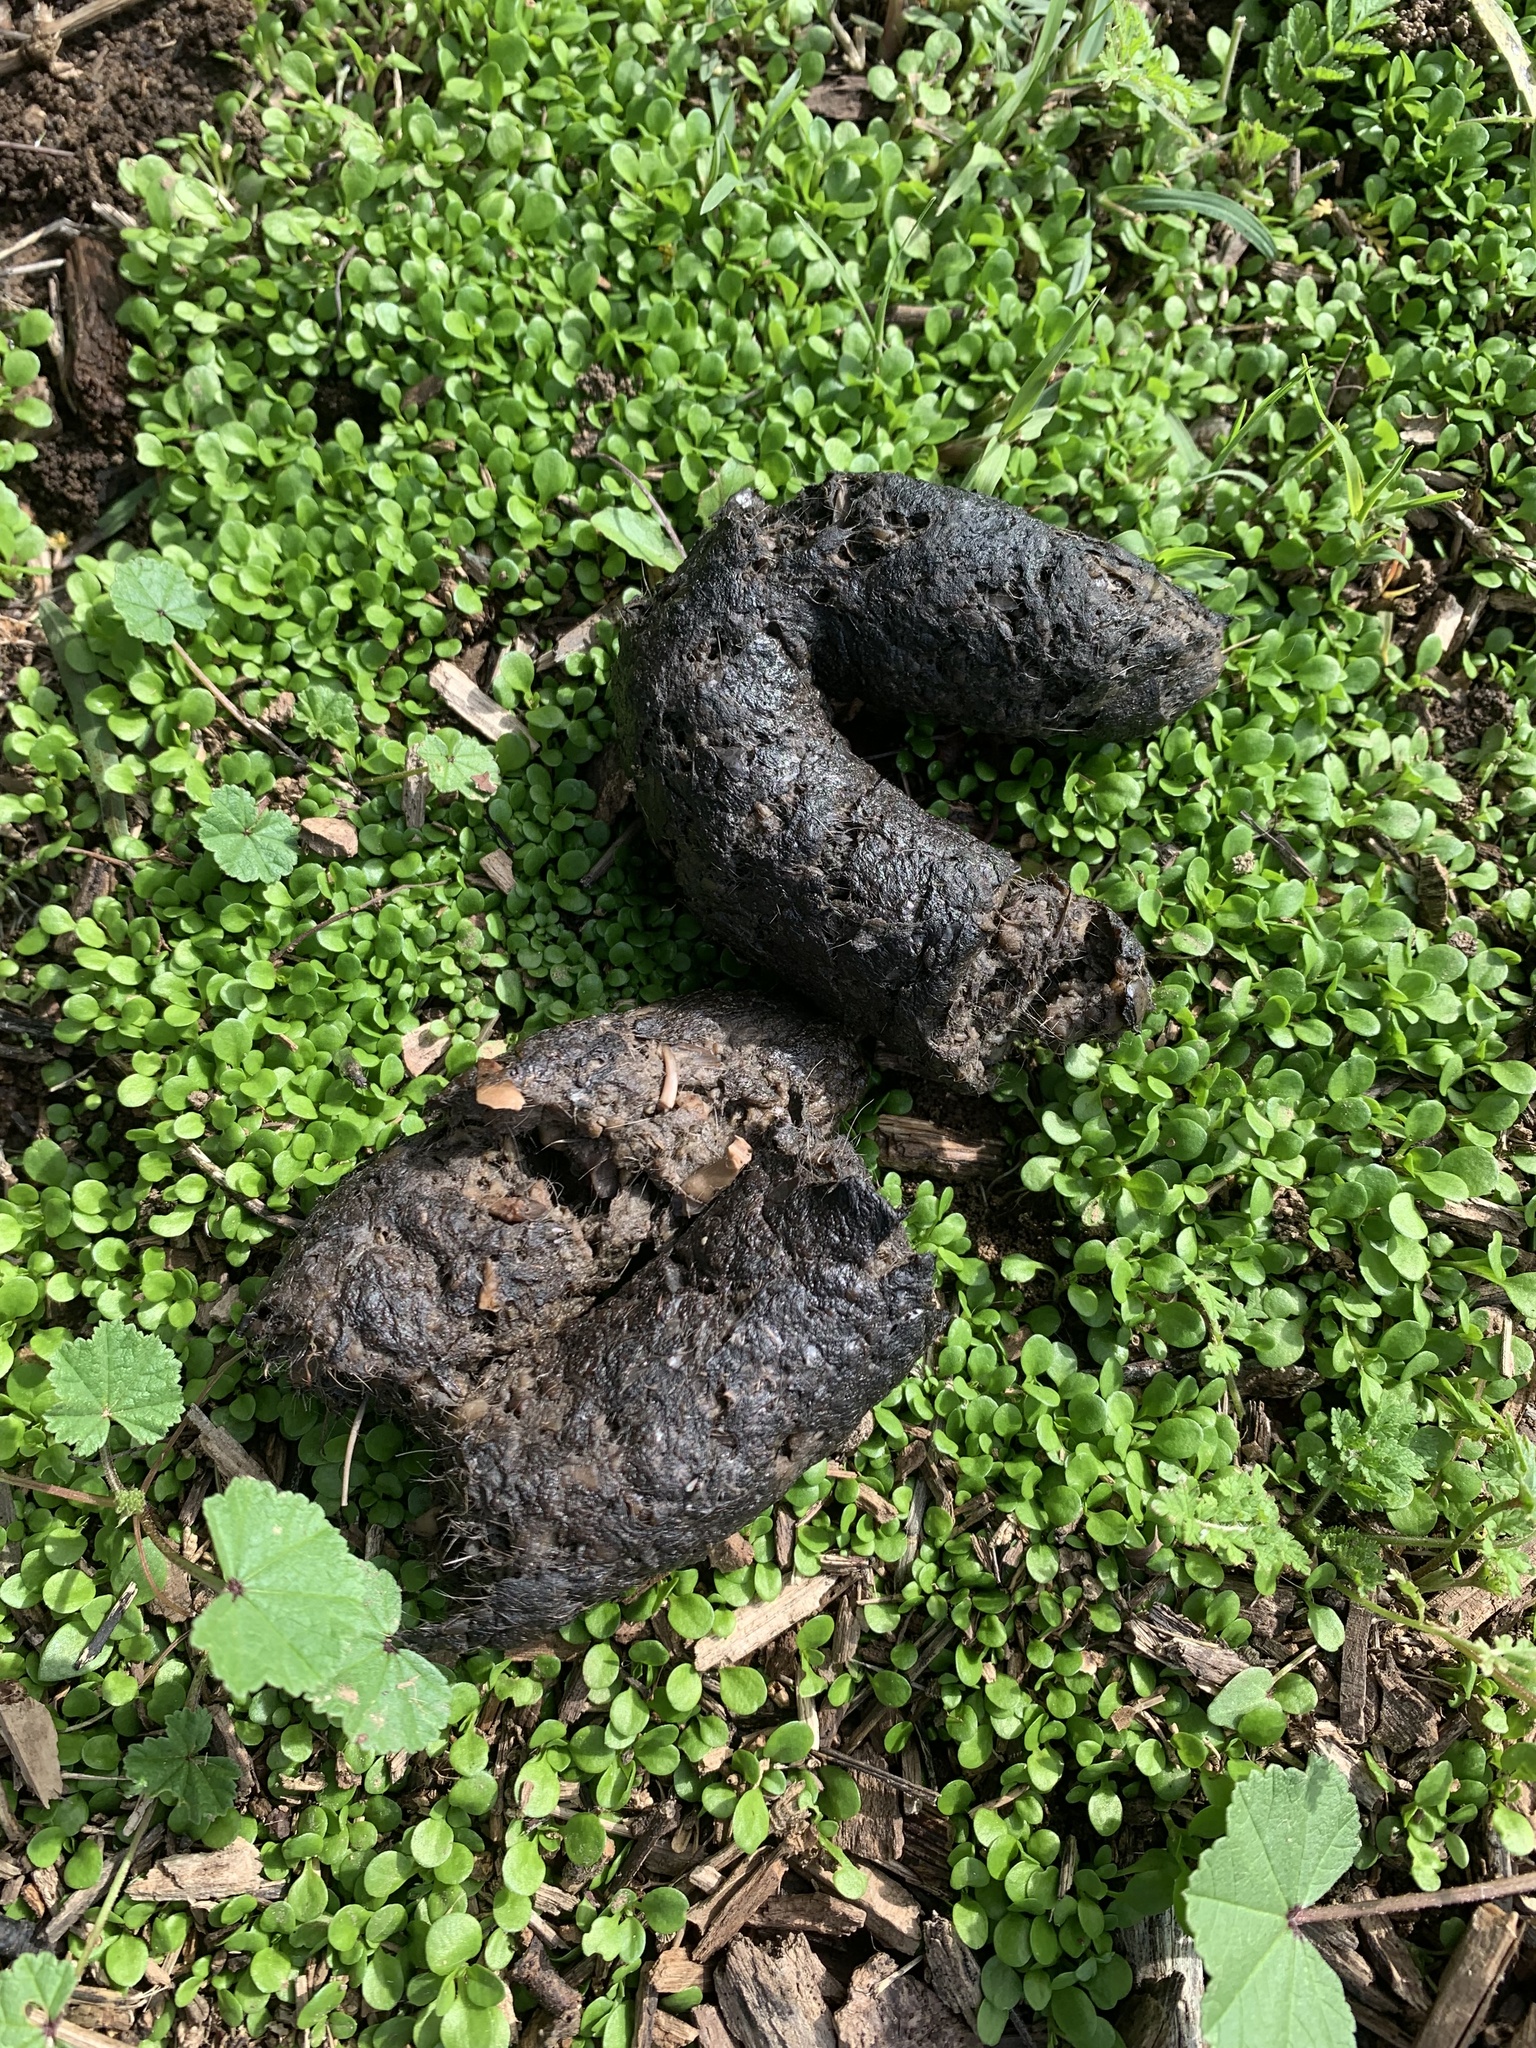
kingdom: Animalia
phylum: Chordata
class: Mammalia
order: Carnivora
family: Ursidae
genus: Ursus
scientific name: Ursus americanus
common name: American black bear
